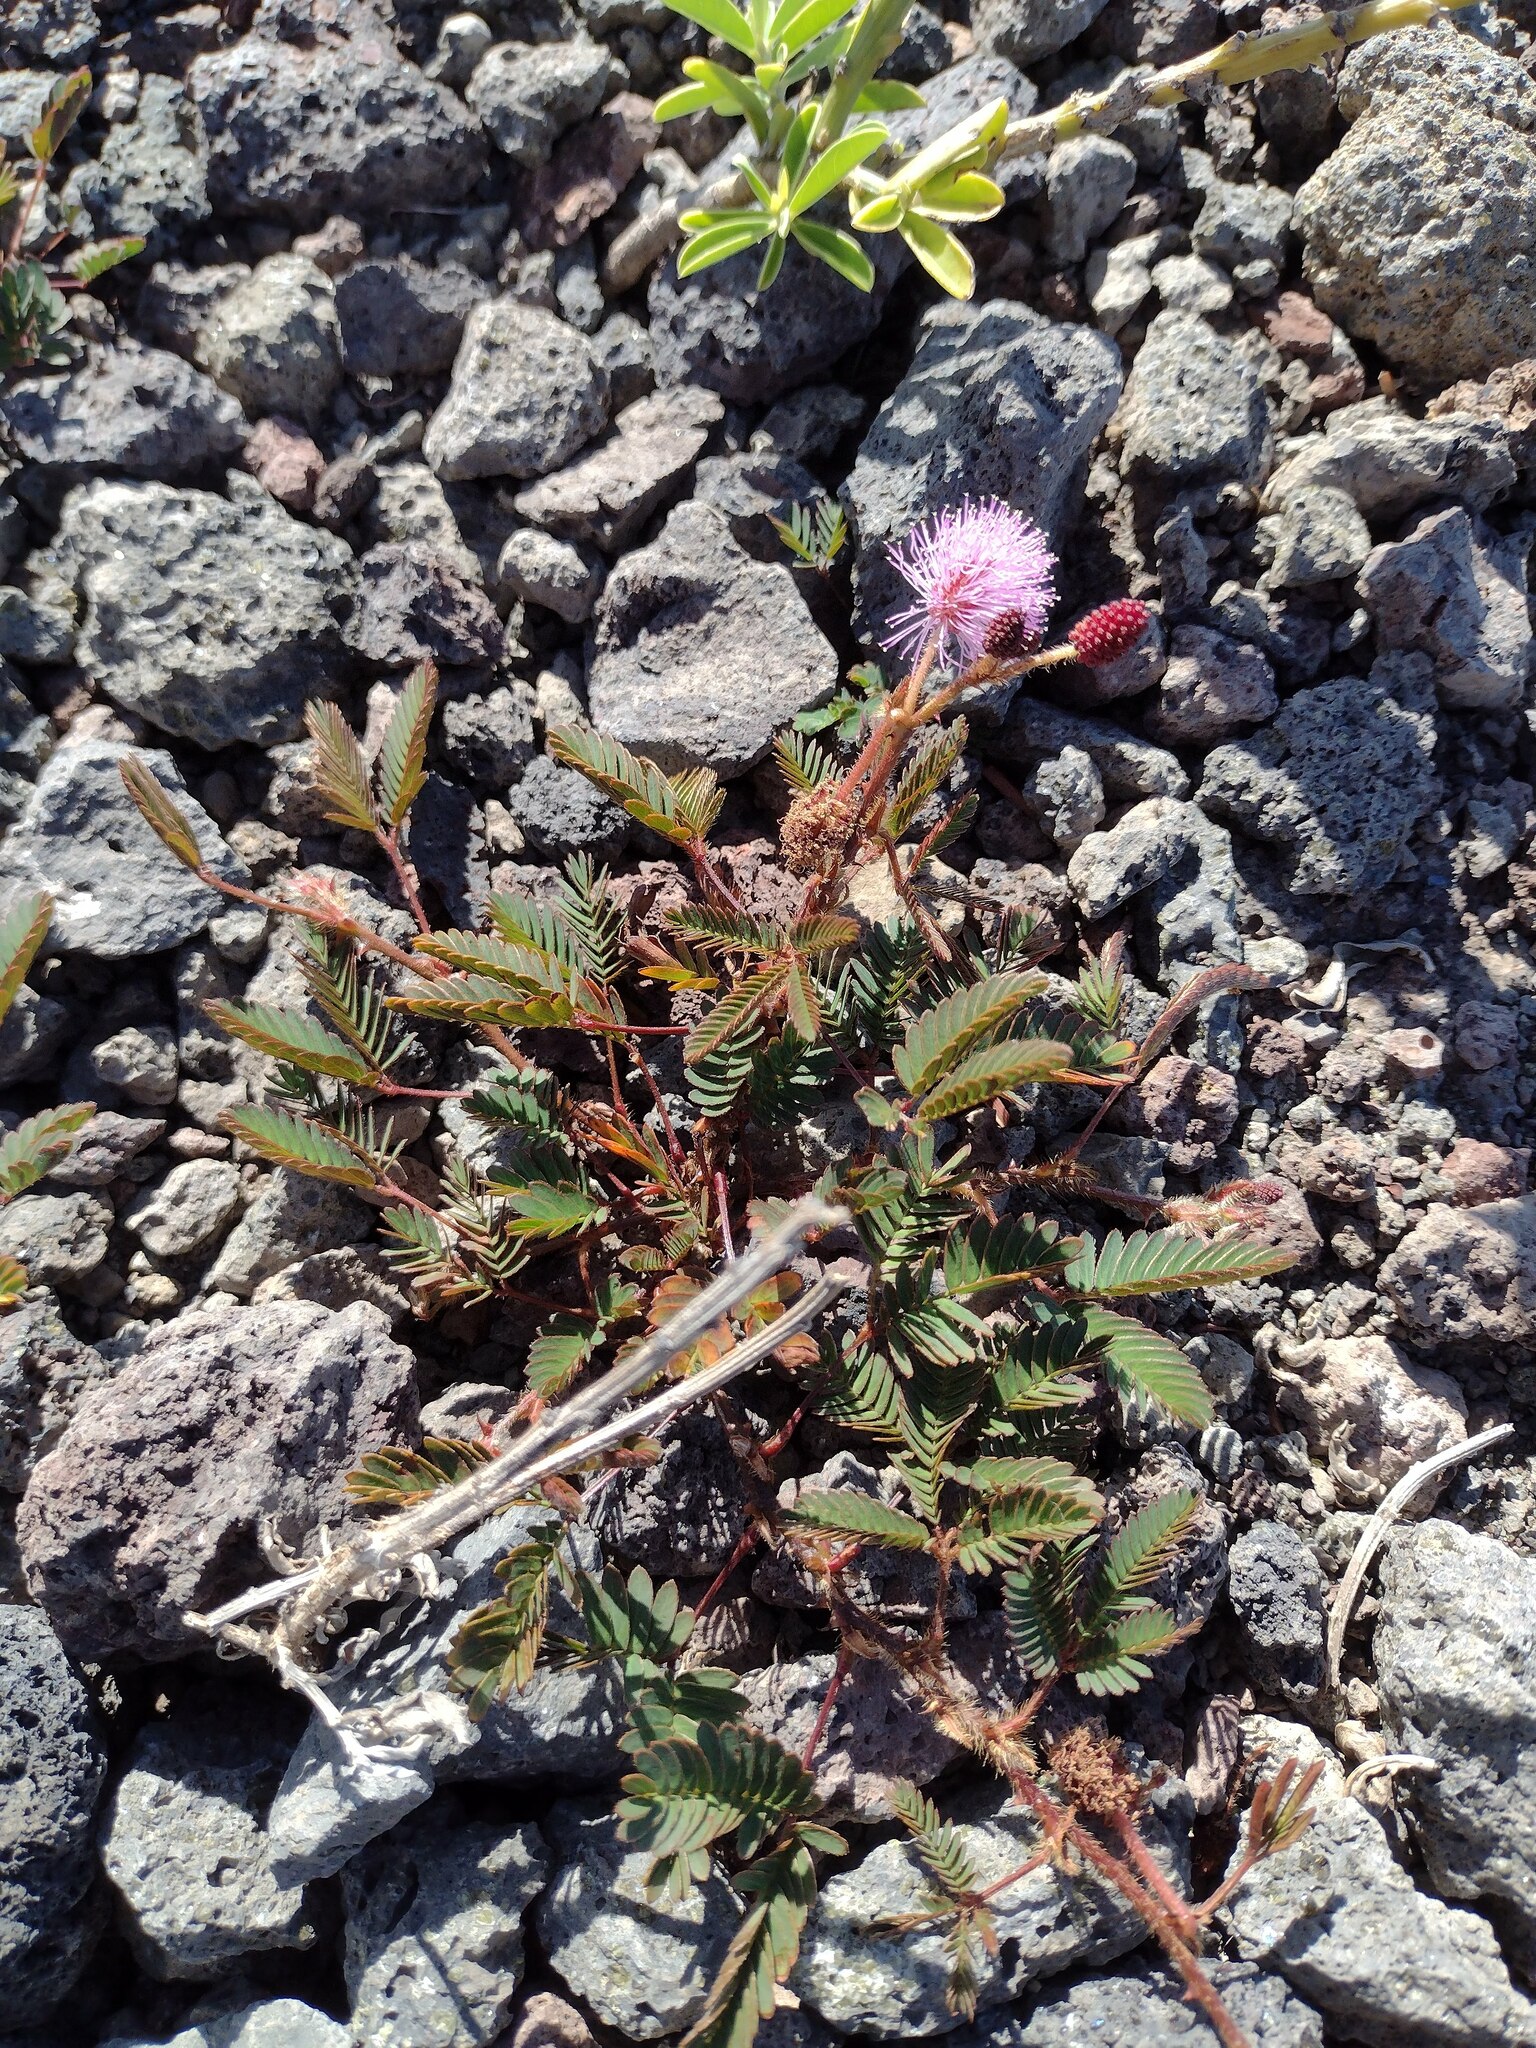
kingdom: Plantae
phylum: Tracheophyta
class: Magnoliopsida
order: Fabales
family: Fabaceae
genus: Mimosa
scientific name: Mimosa pudica
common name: Sensitive plant
